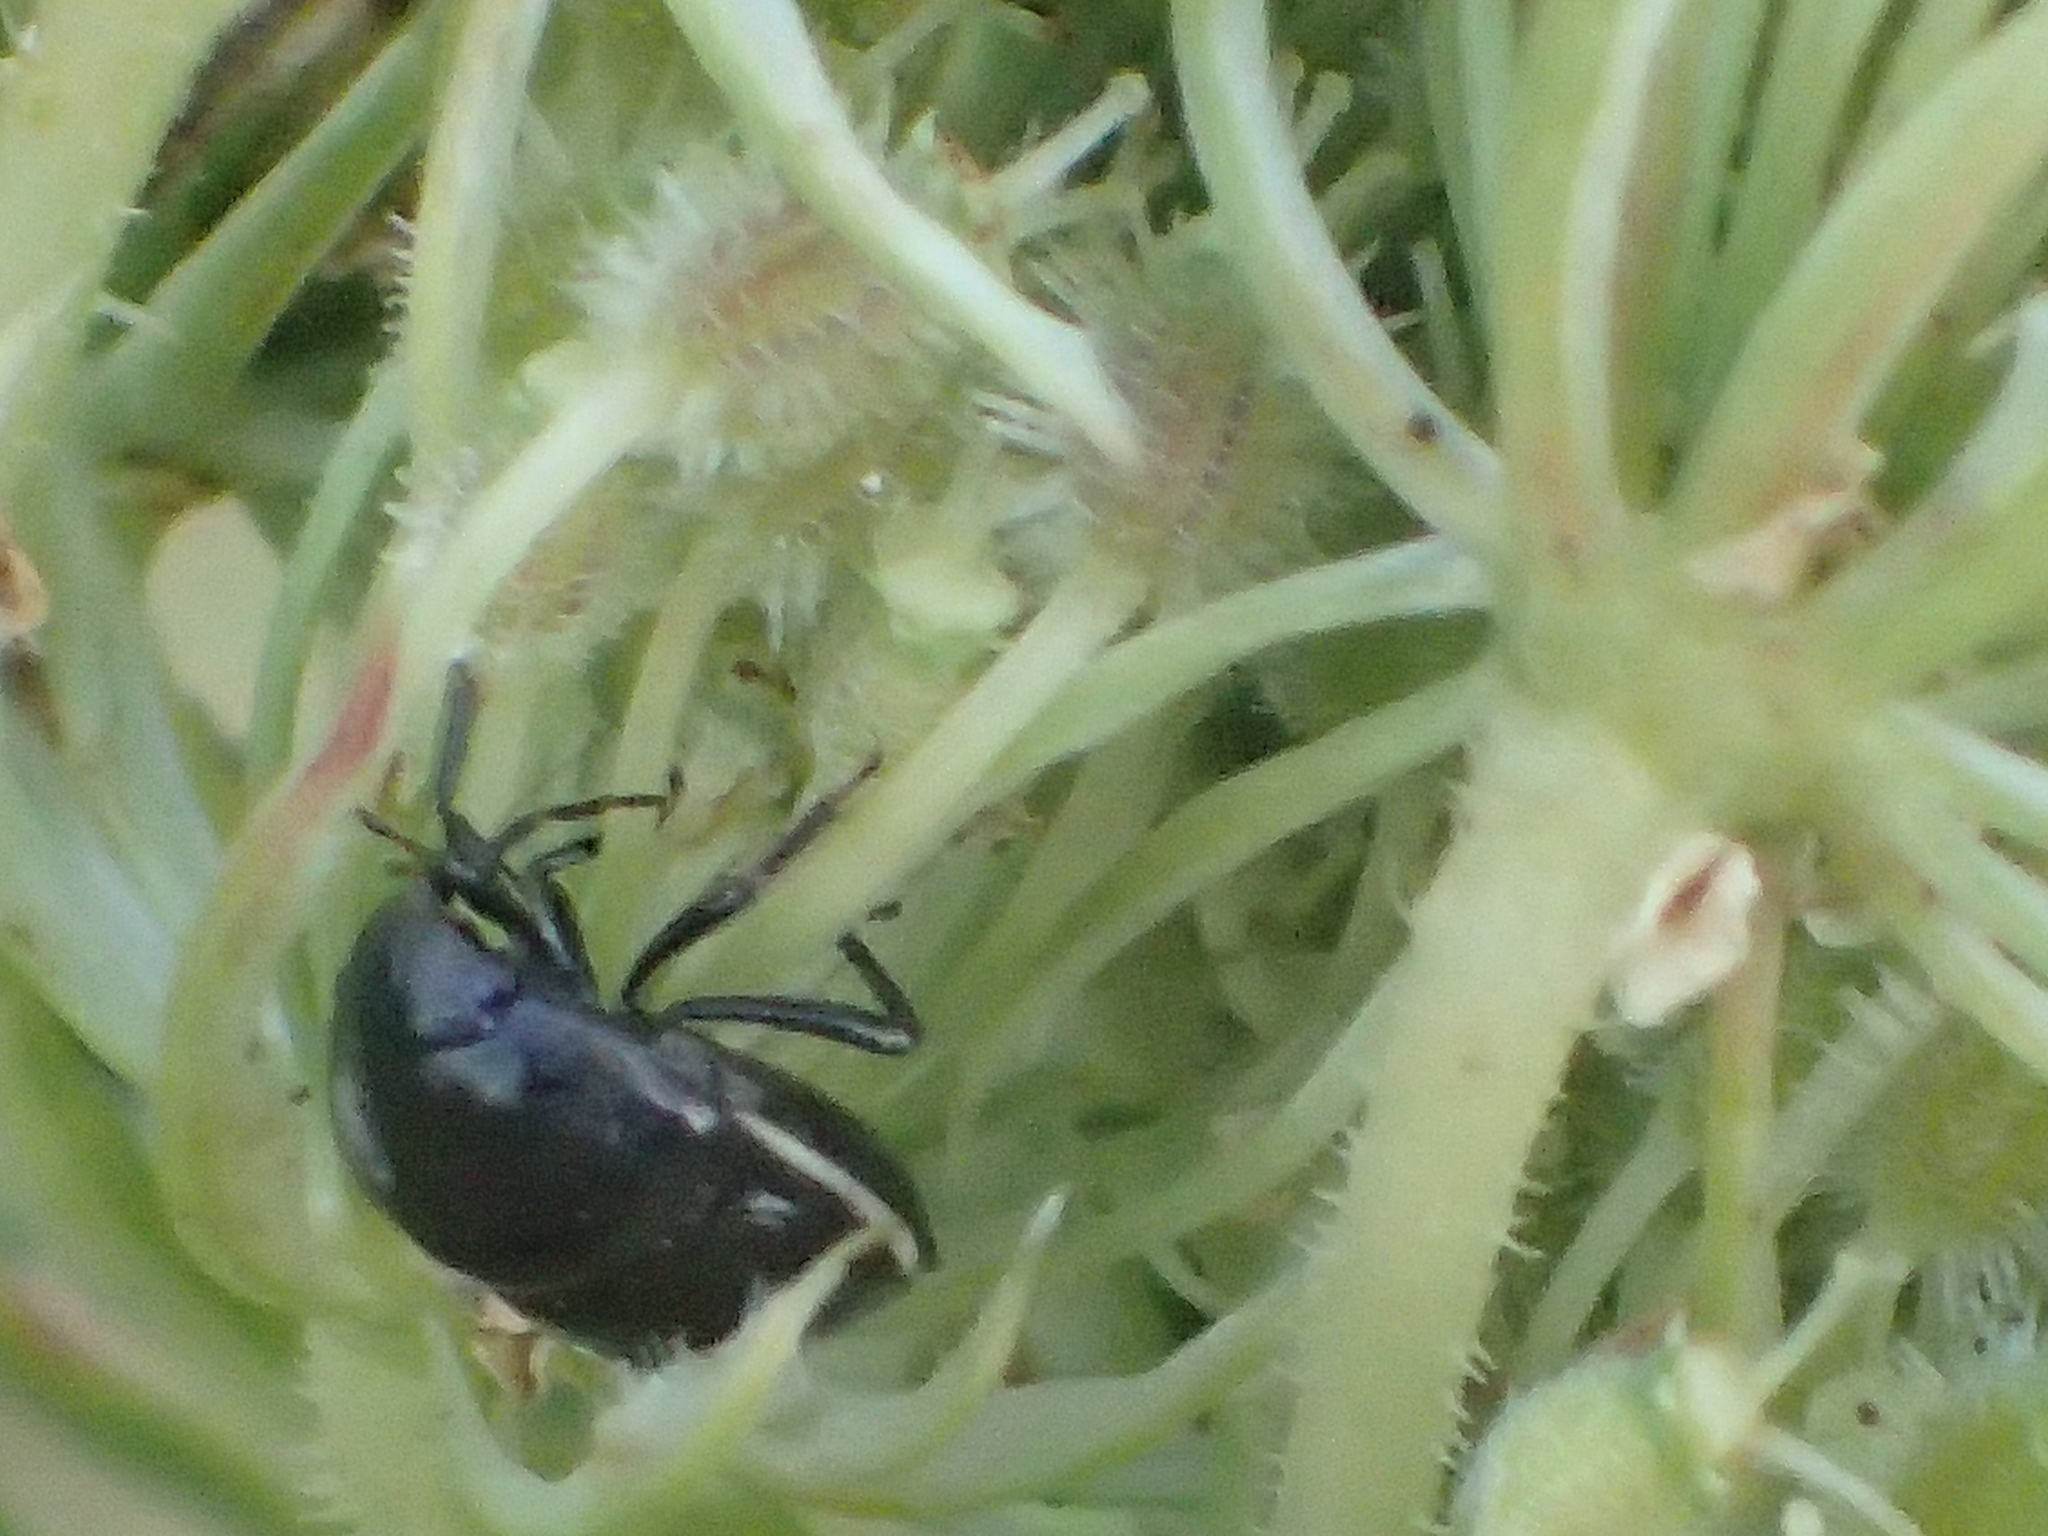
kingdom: Animalia
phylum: Arthropoda
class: Insecta
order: Hemiptera
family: Thyreocoridae
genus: Corimelaena
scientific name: Corimelaena
